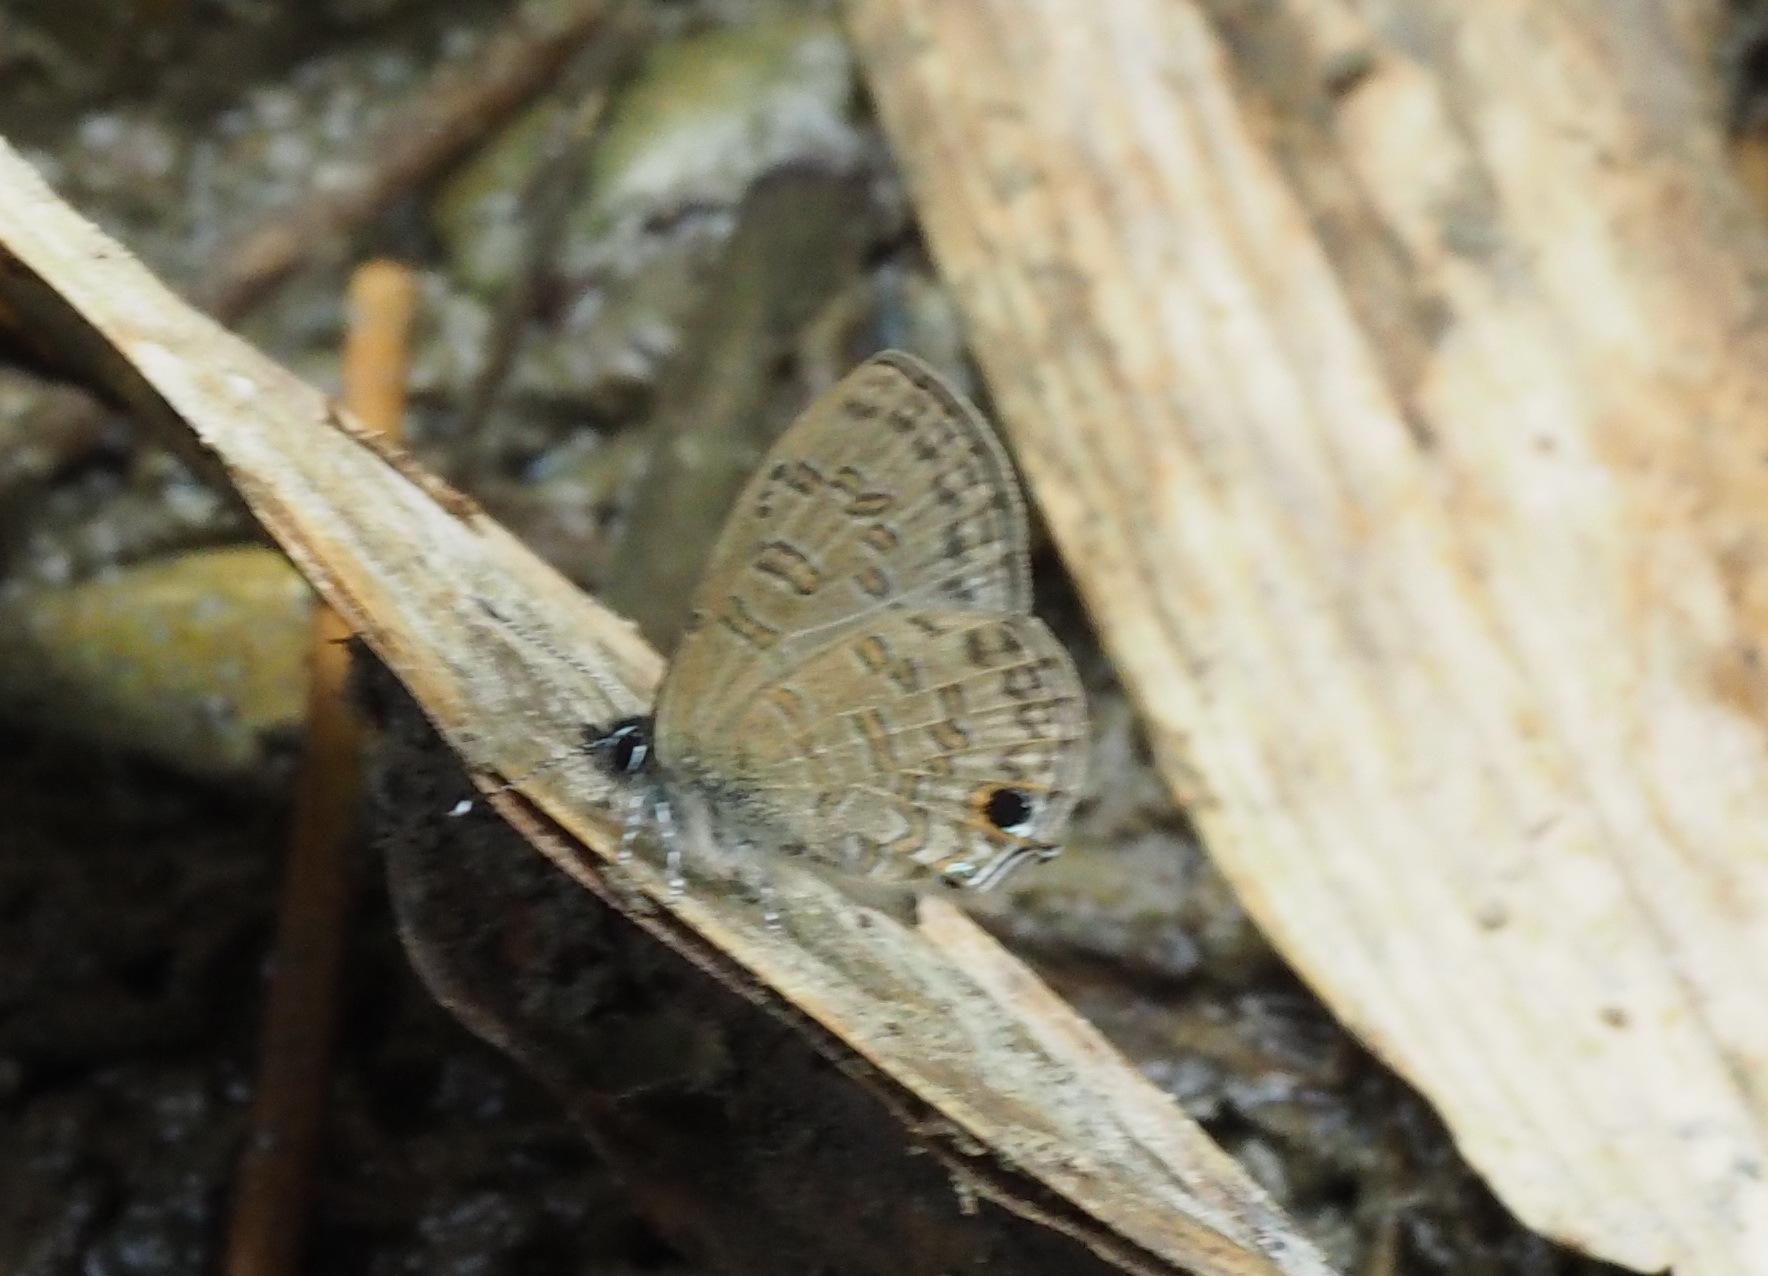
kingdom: Animalia
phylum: Arthropoda
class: Insecta
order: Lepidoptera
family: Lycaenidae
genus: Prosotas
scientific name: Prosotas nora
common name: Common line blue
